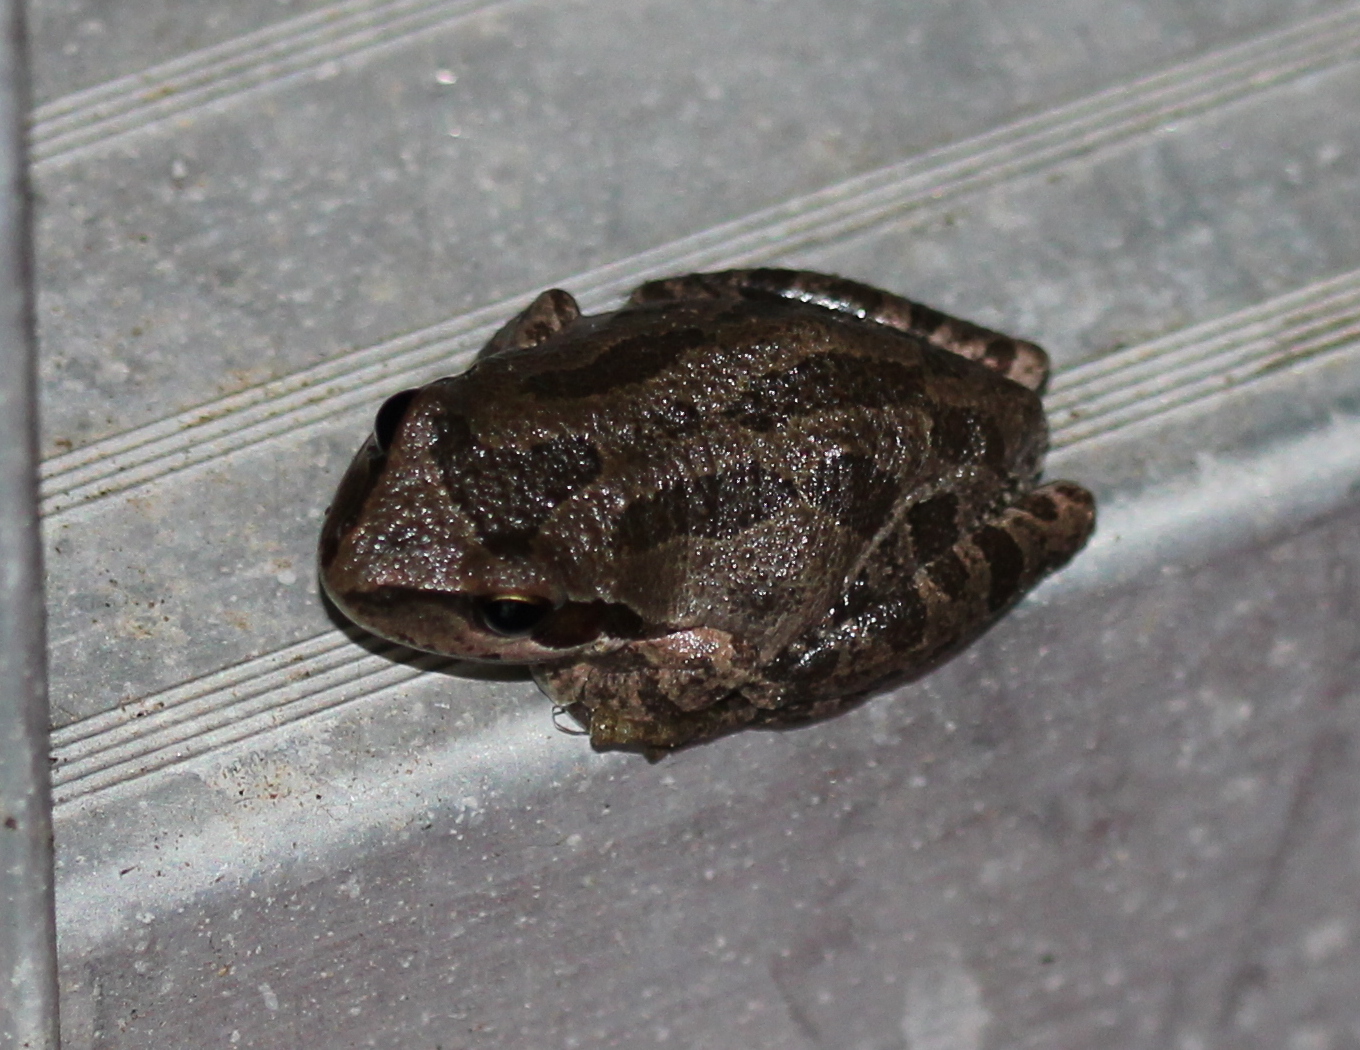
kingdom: Animalia
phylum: Chordata
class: Amphibia
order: Anura
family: Hylidae
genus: Pseudacris
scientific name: Pseudacris regilla
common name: Pacific chorus frog
